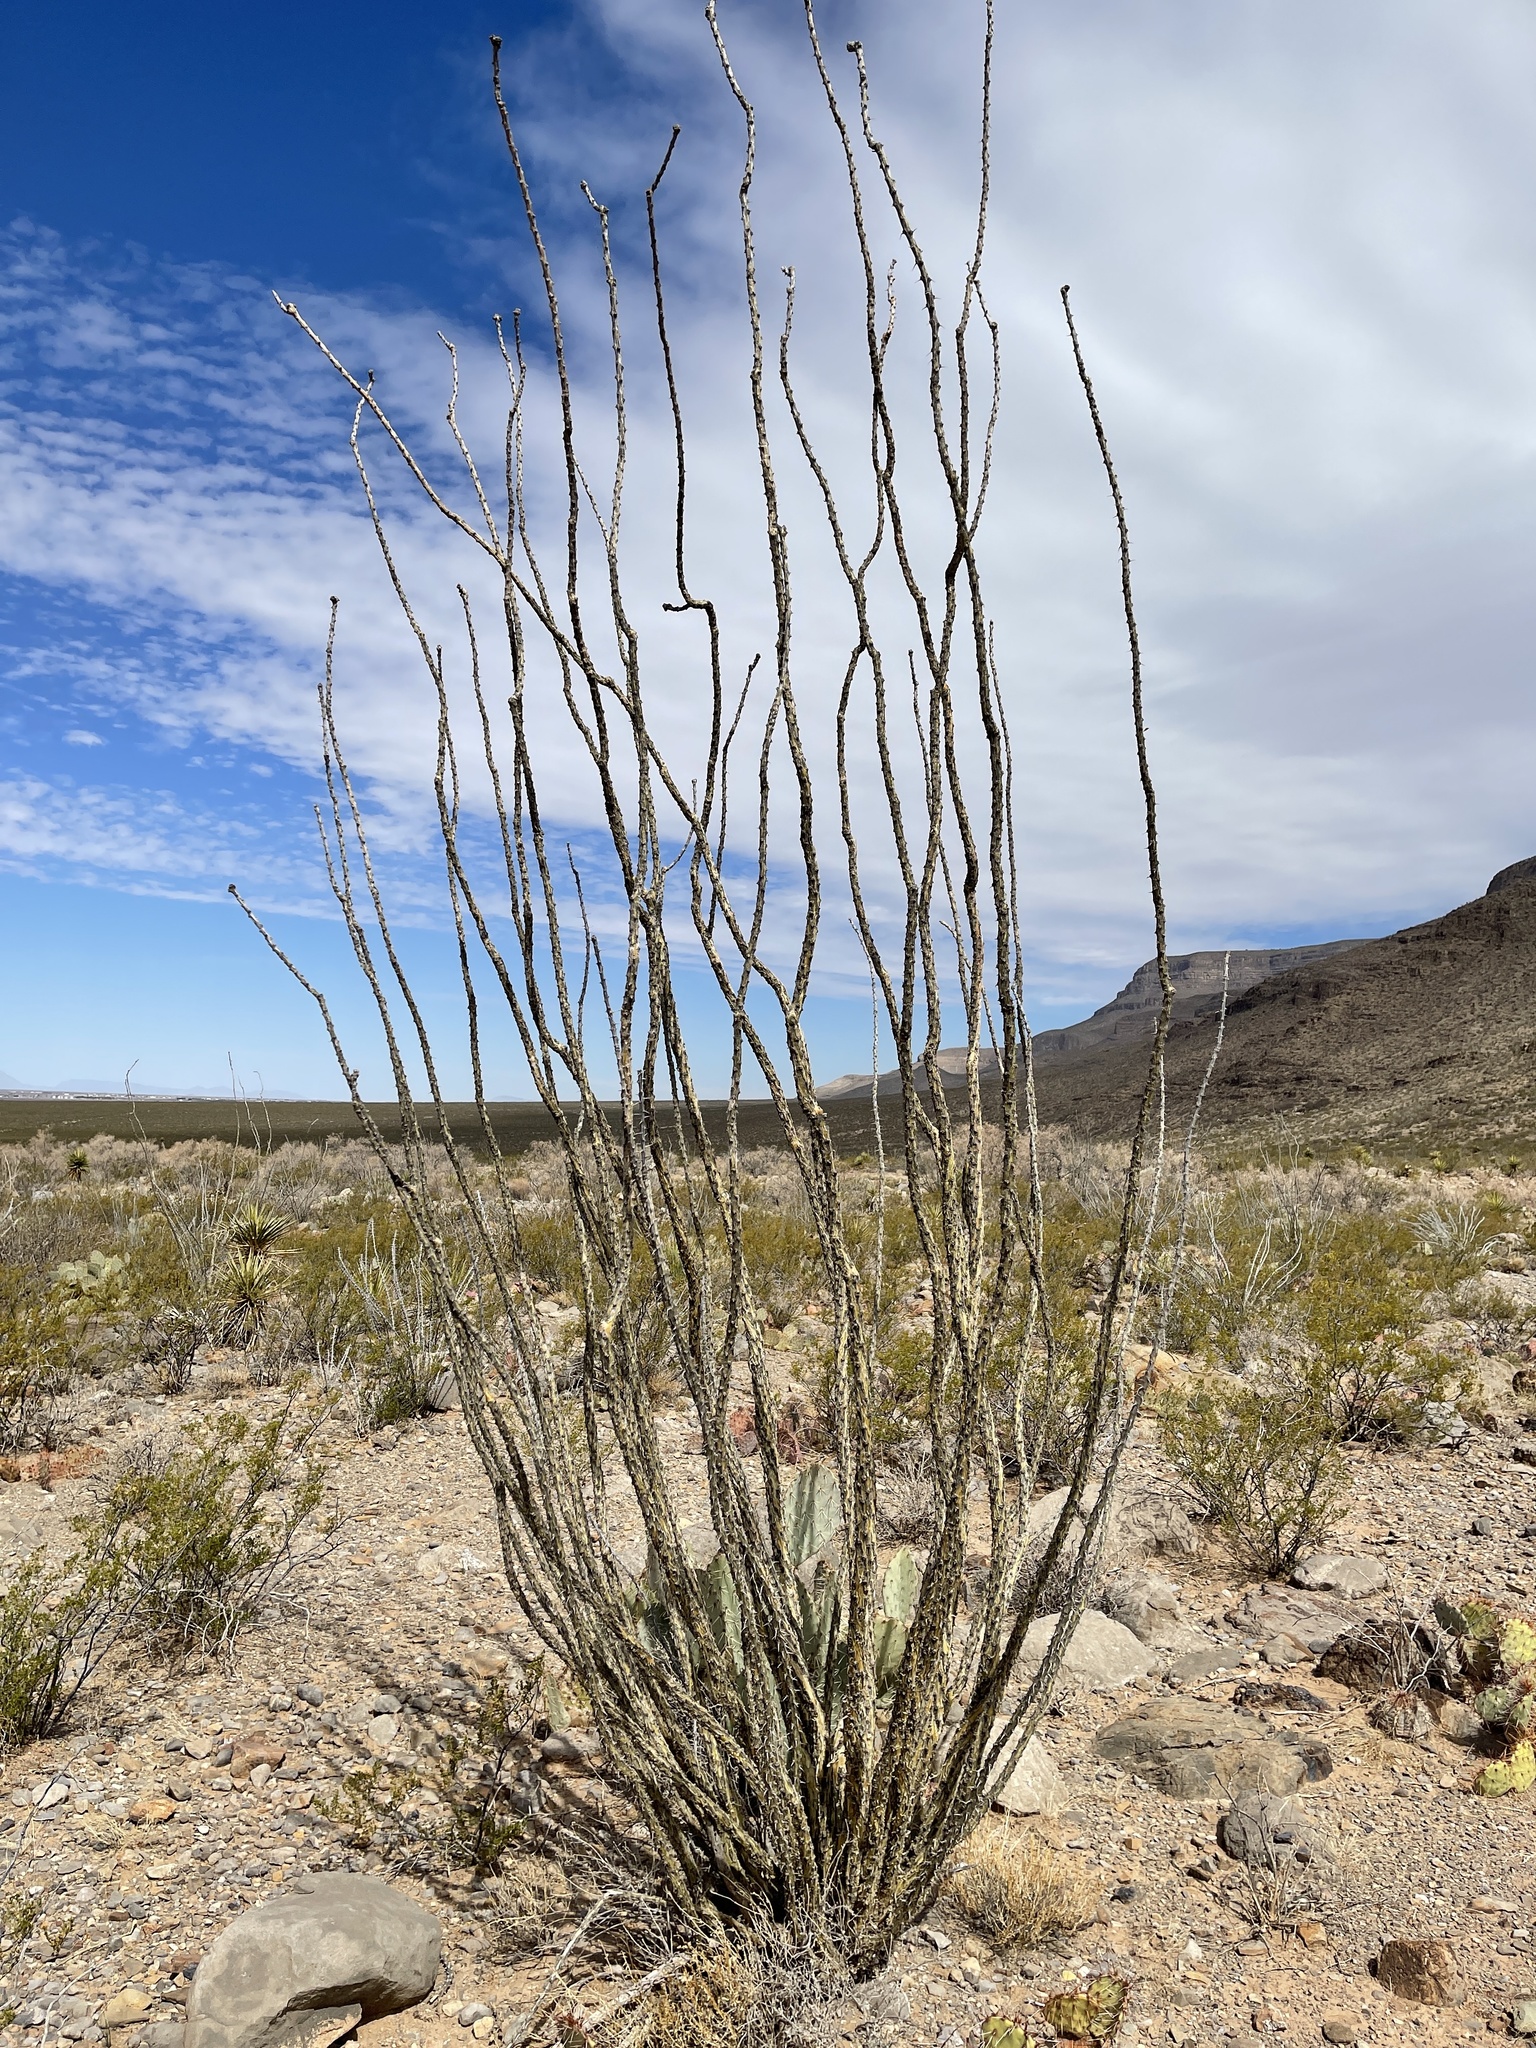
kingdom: Plantae
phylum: Tracheophyta
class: Magnoliopsida
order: Ericales
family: Fouquieriaceae
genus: Fouquieria
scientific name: Fouquieria splendens
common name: Vine-cactus
